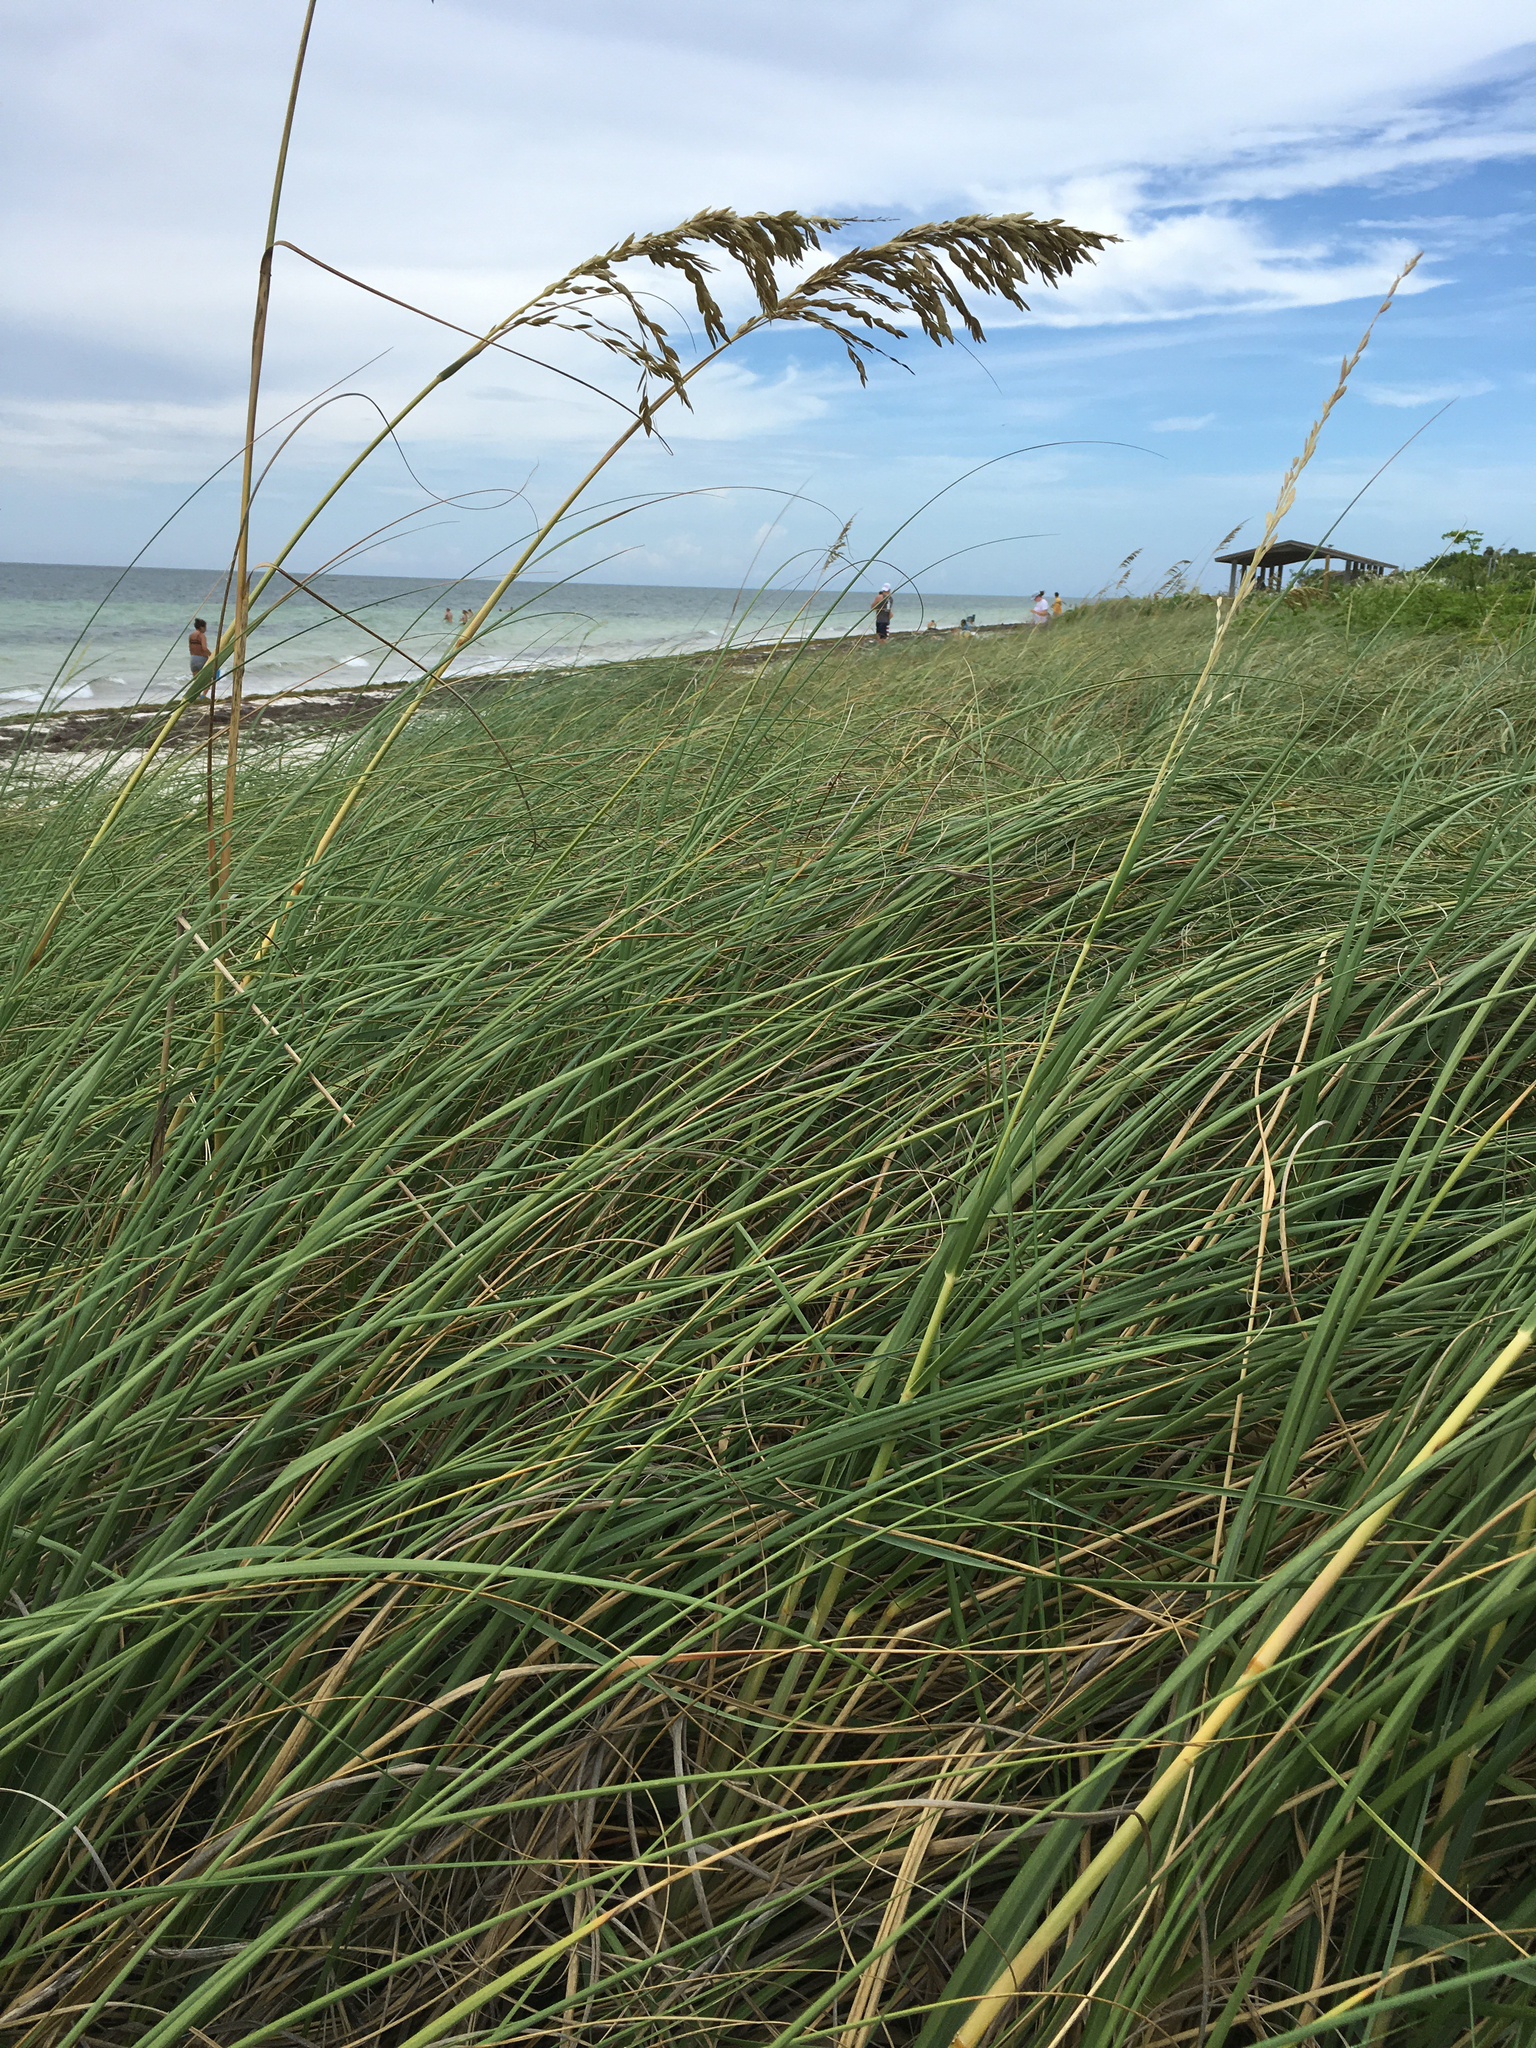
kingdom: Plantae
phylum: Tracheophyta
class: Liliopsida
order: Poales
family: Poaceae
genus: Uniola
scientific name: Uniola paniculata
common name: Seaside-oats
